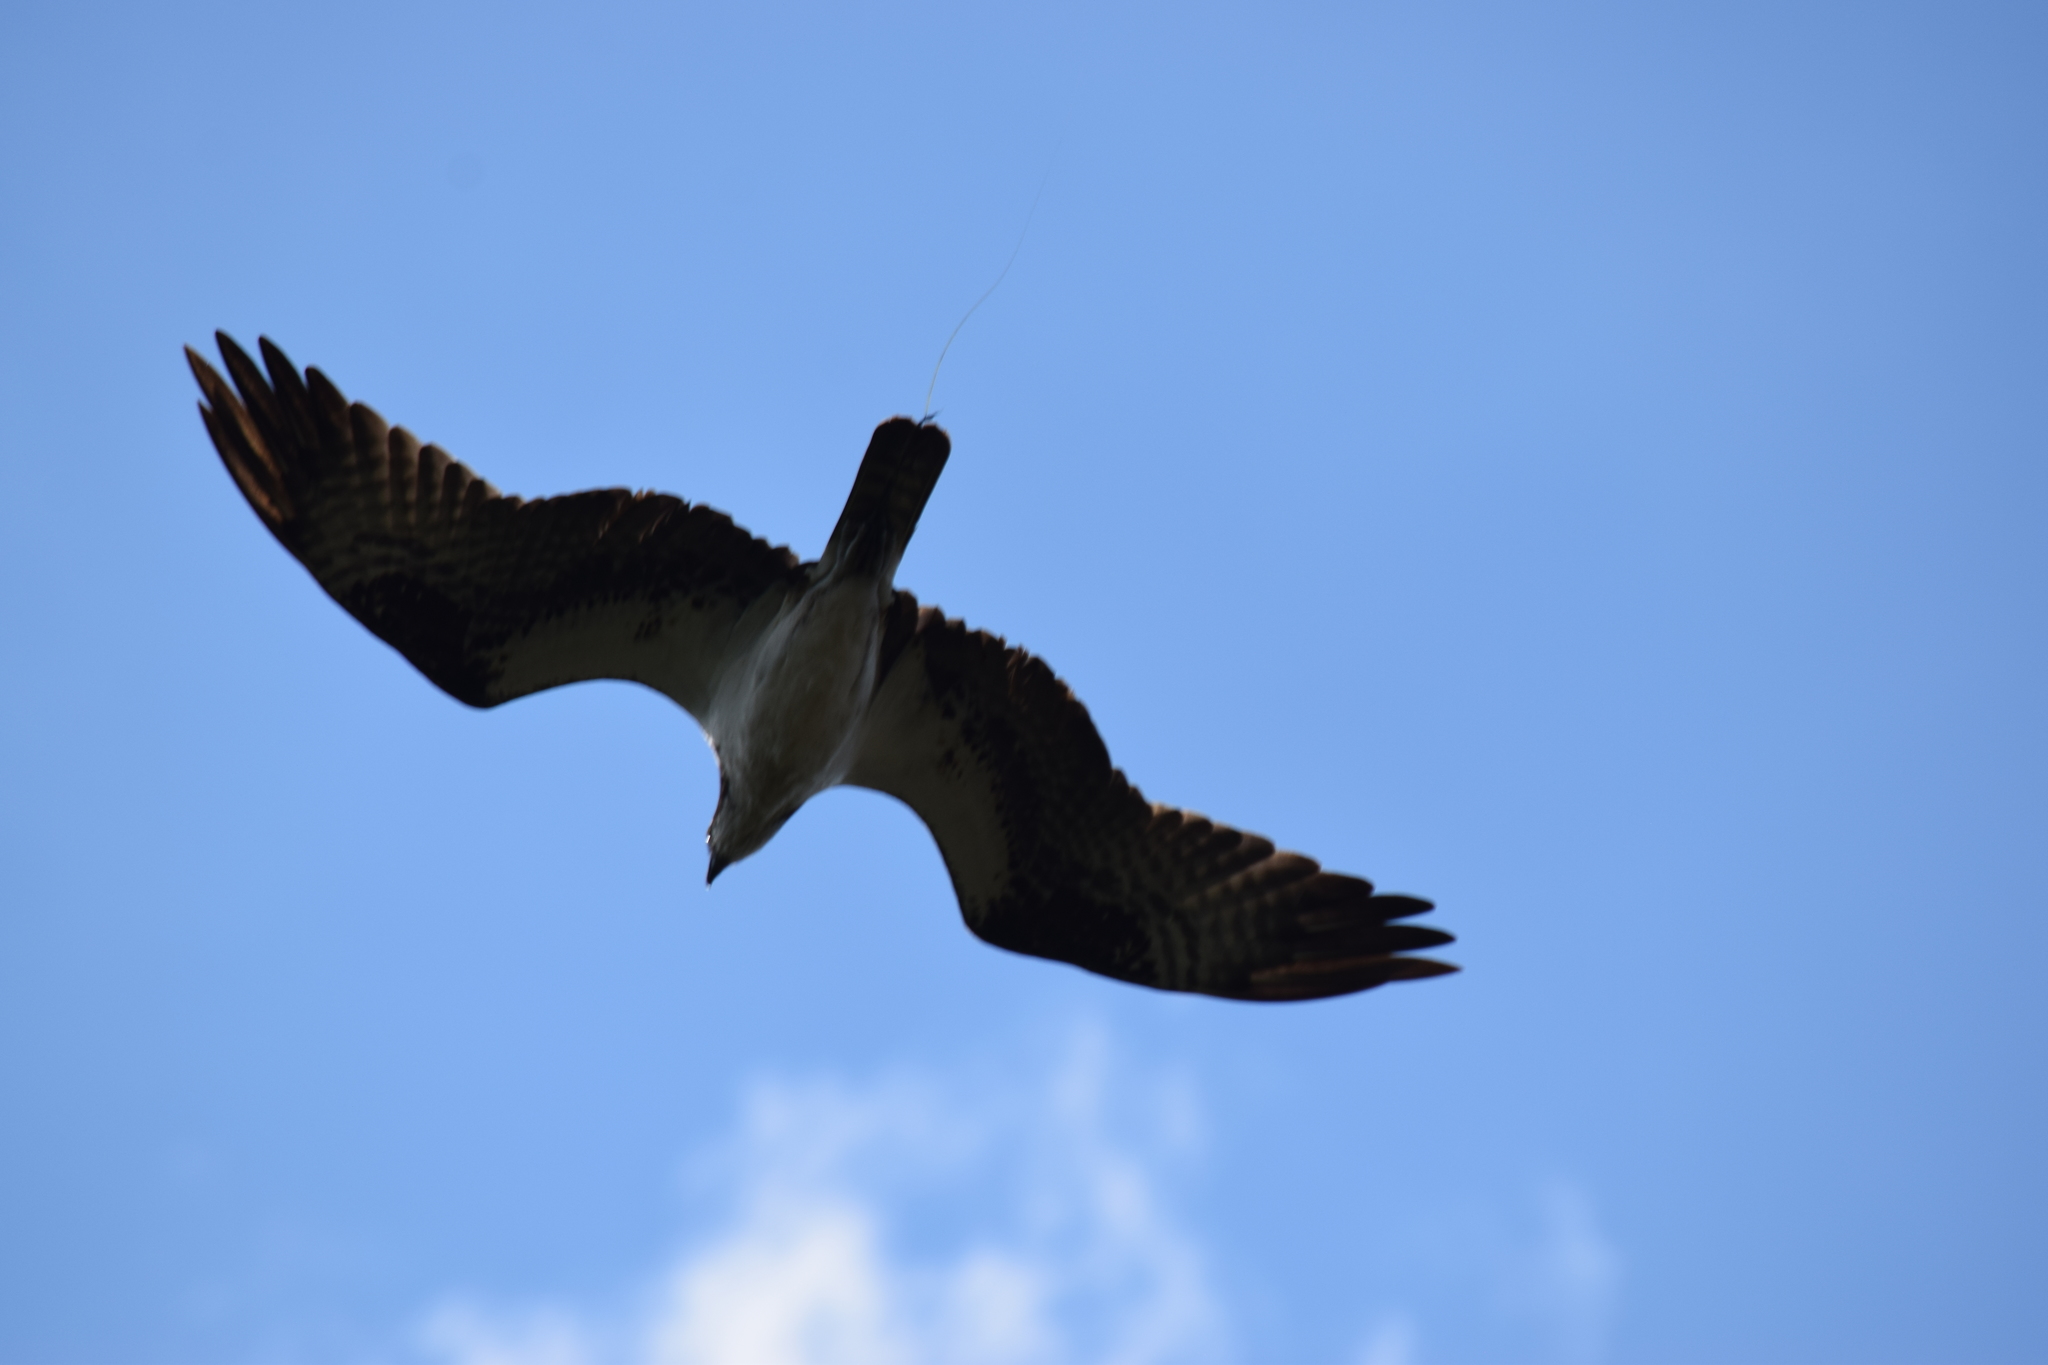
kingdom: Animalia
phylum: Chordata
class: Aves
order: Accipitriformes
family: Pandionidae
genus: Pandion
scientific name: Pandion haliaetus
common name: Osprey
